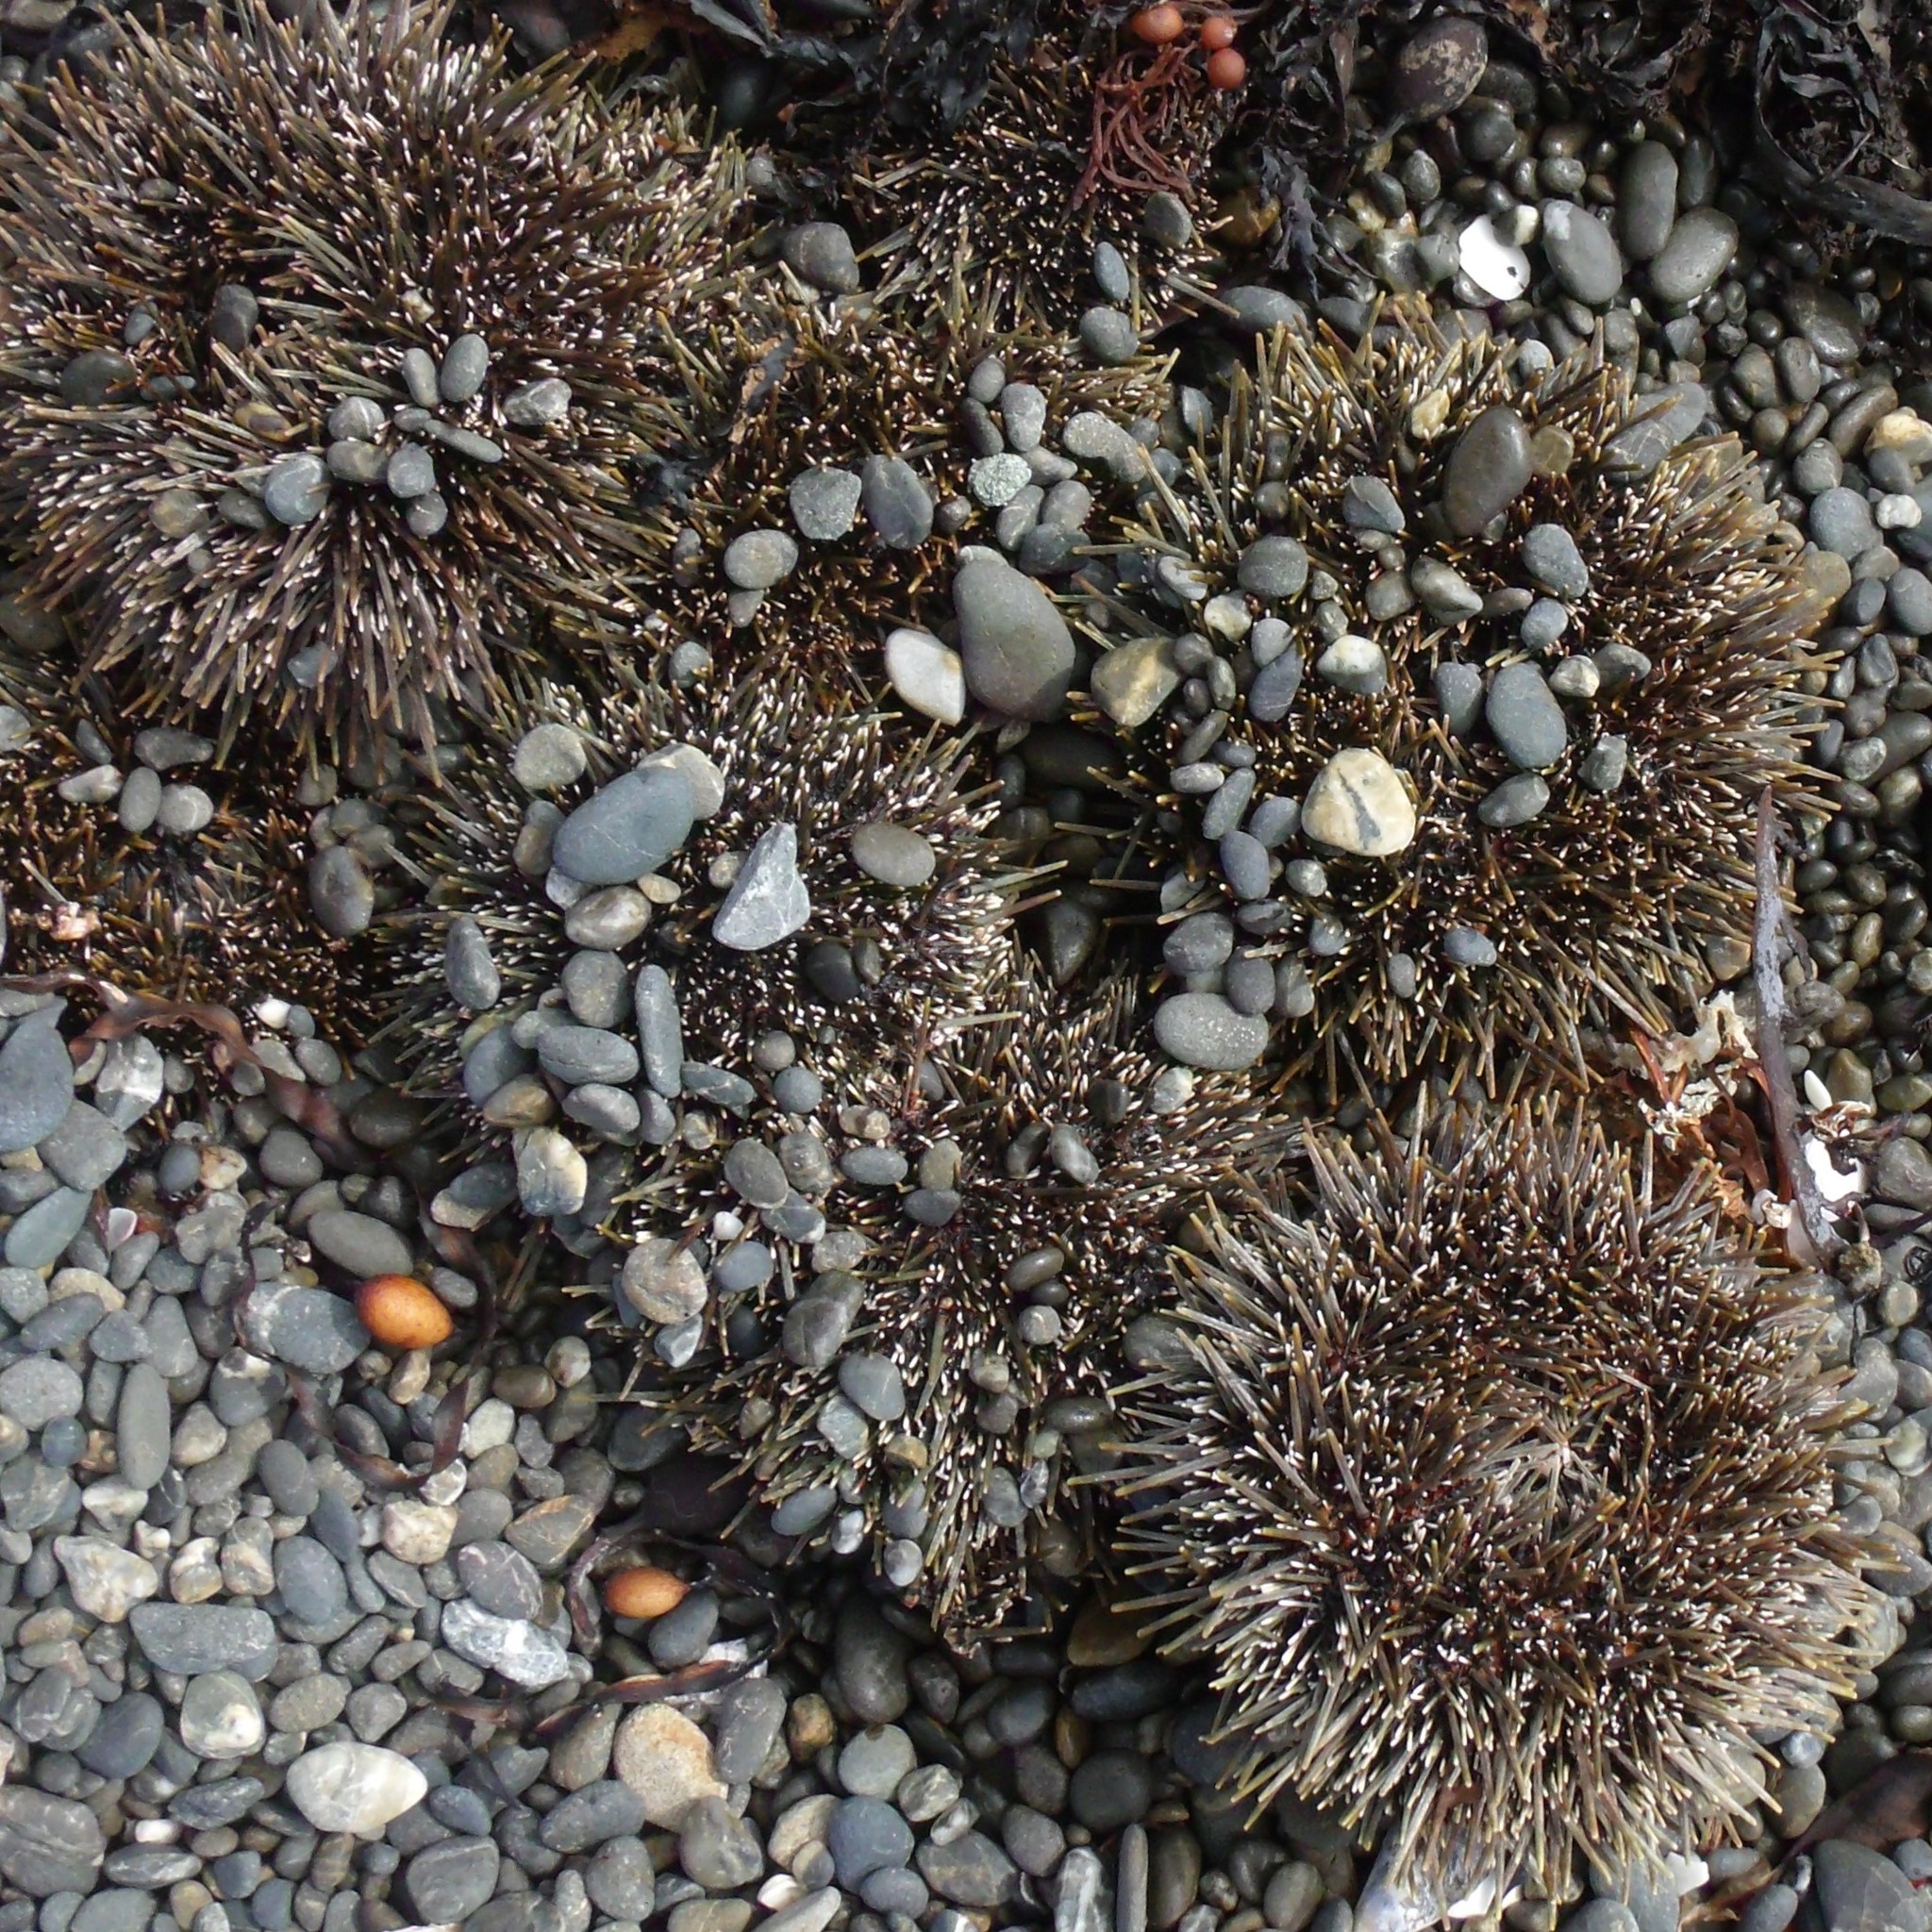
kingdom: Animalia
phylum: Echinodermata
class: Echinoidea
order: Camarodonta
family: Echinometridae
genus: Evechinus
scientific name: Evechinus chloroticus
